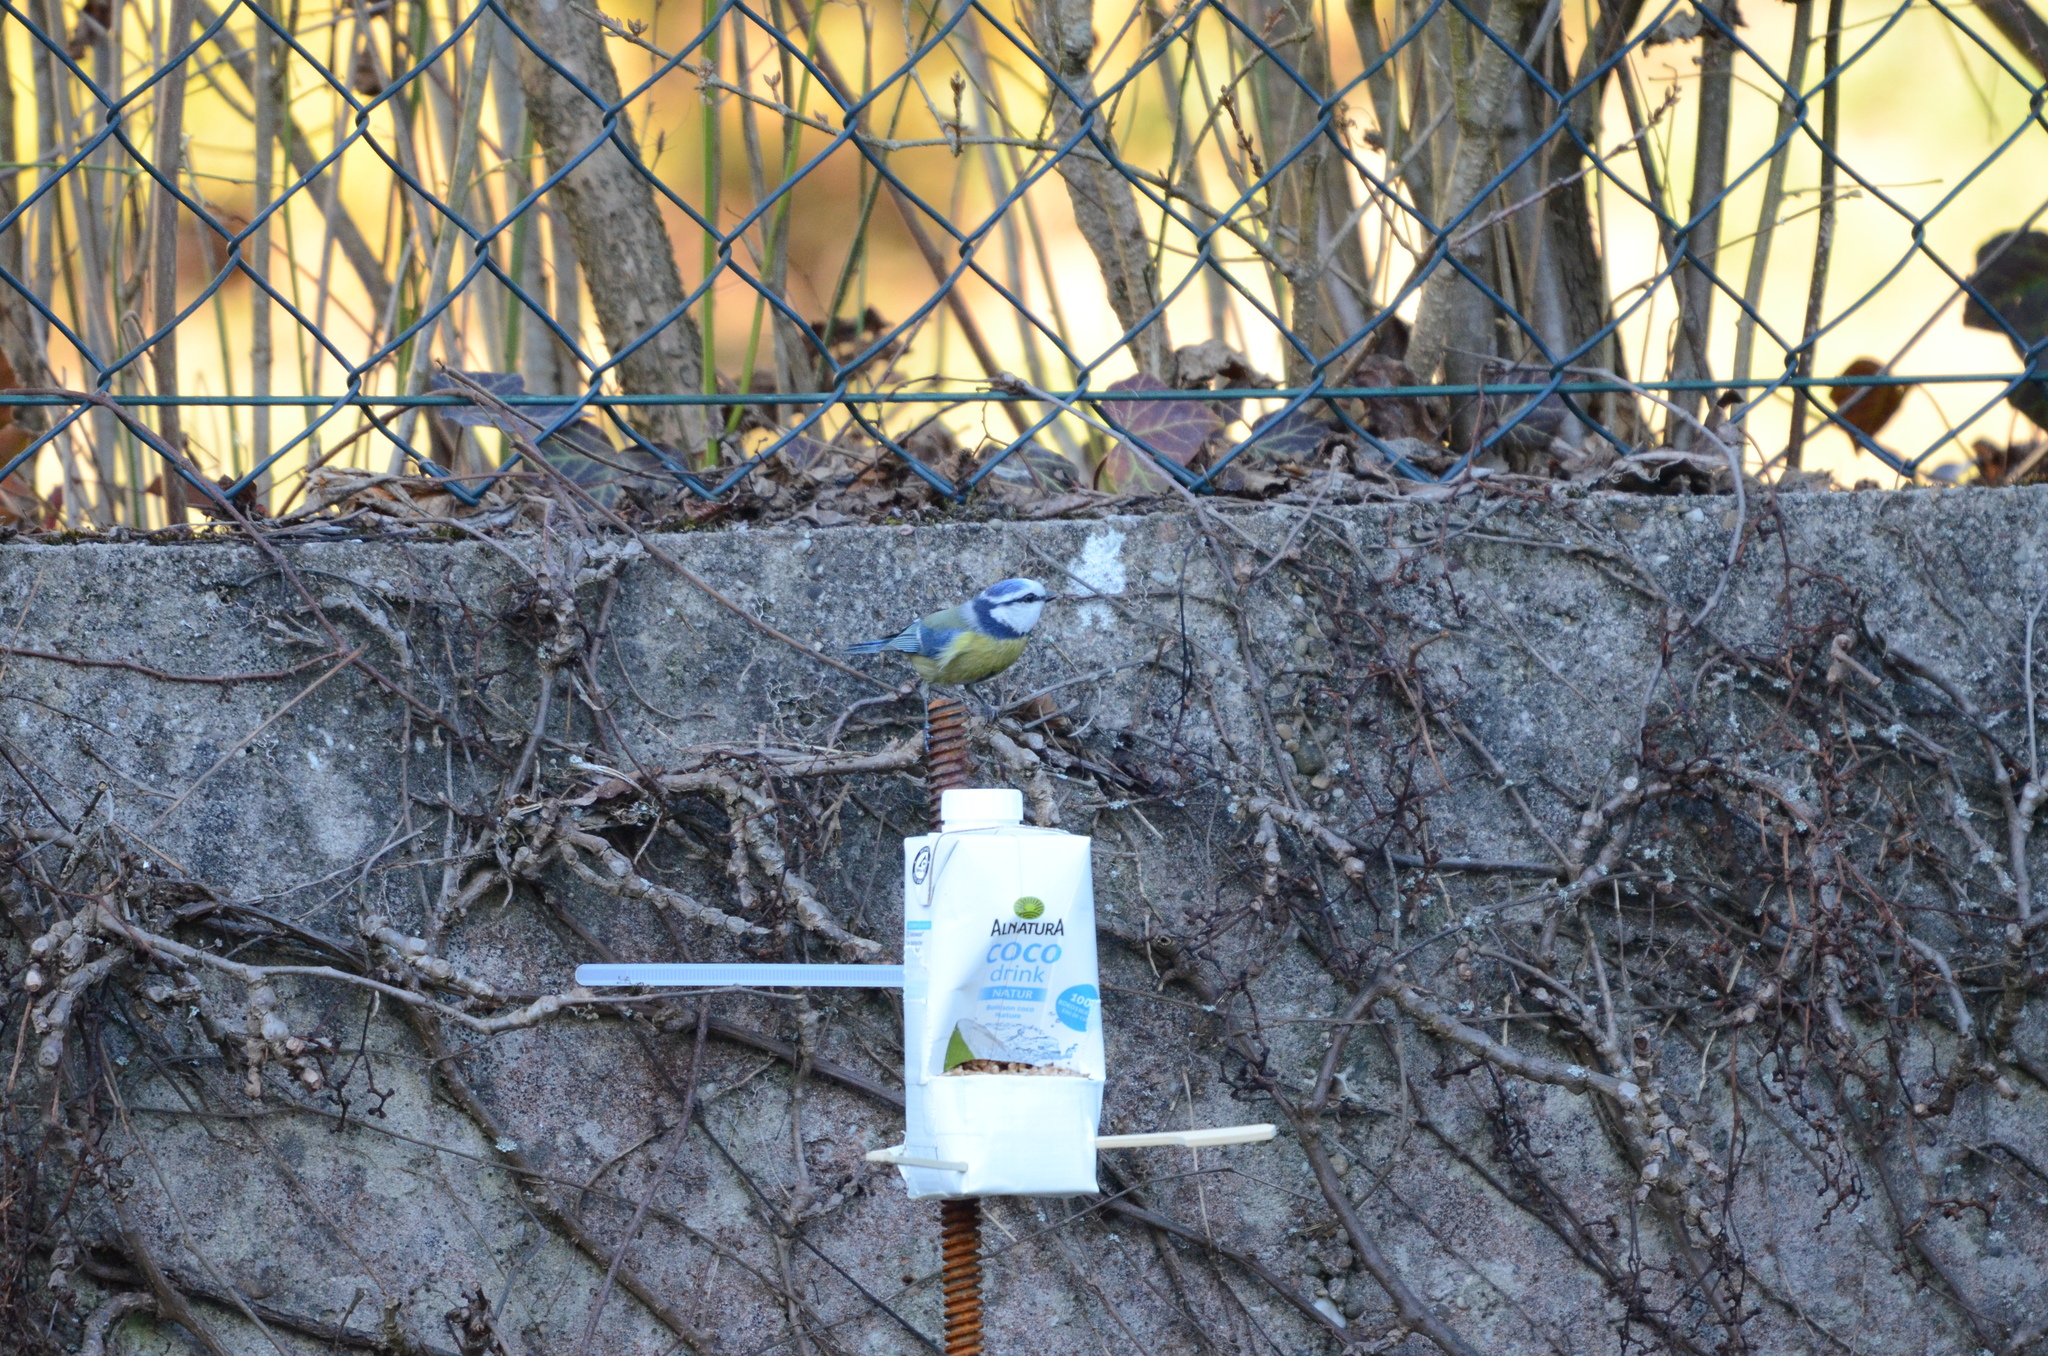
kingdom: Animalia
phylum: Chordata
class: Aves
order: Passeriformes
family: Paridae
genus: Cyanistes
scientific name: Cyanistes caeruleus
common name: Eurasian blue tit
